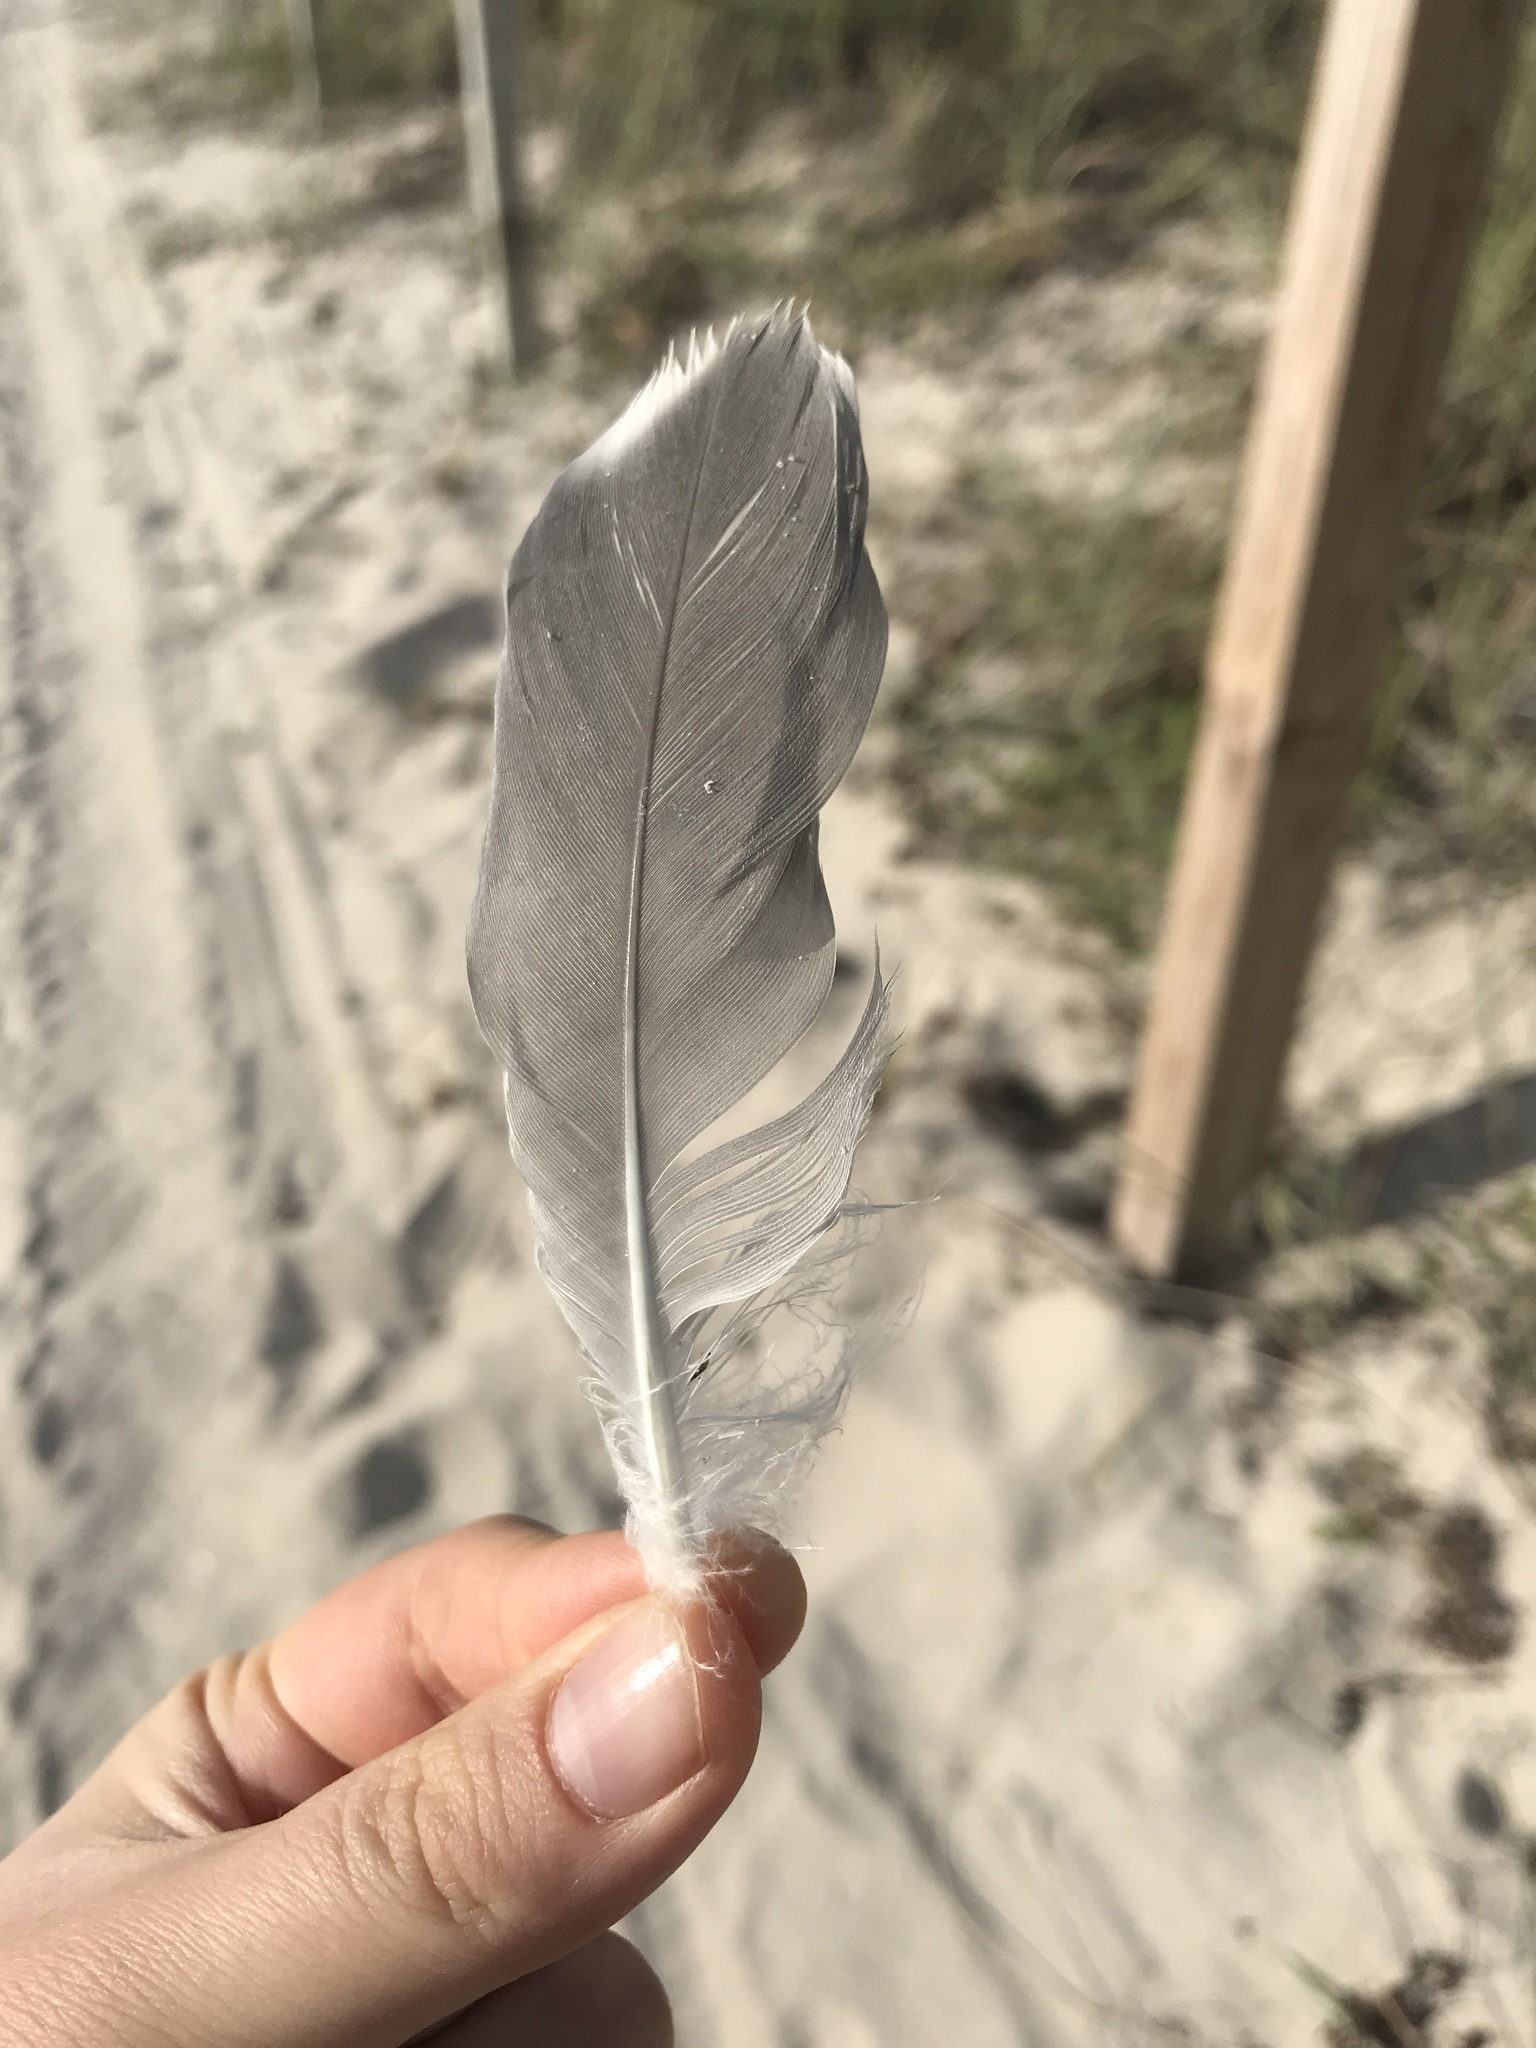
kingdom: Animalia
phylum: Chordata
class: Aves
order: Charadriiformes
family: Laridae
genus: Leucophaeus
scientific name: Leucophaeus atricilla
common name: Laughing gull
